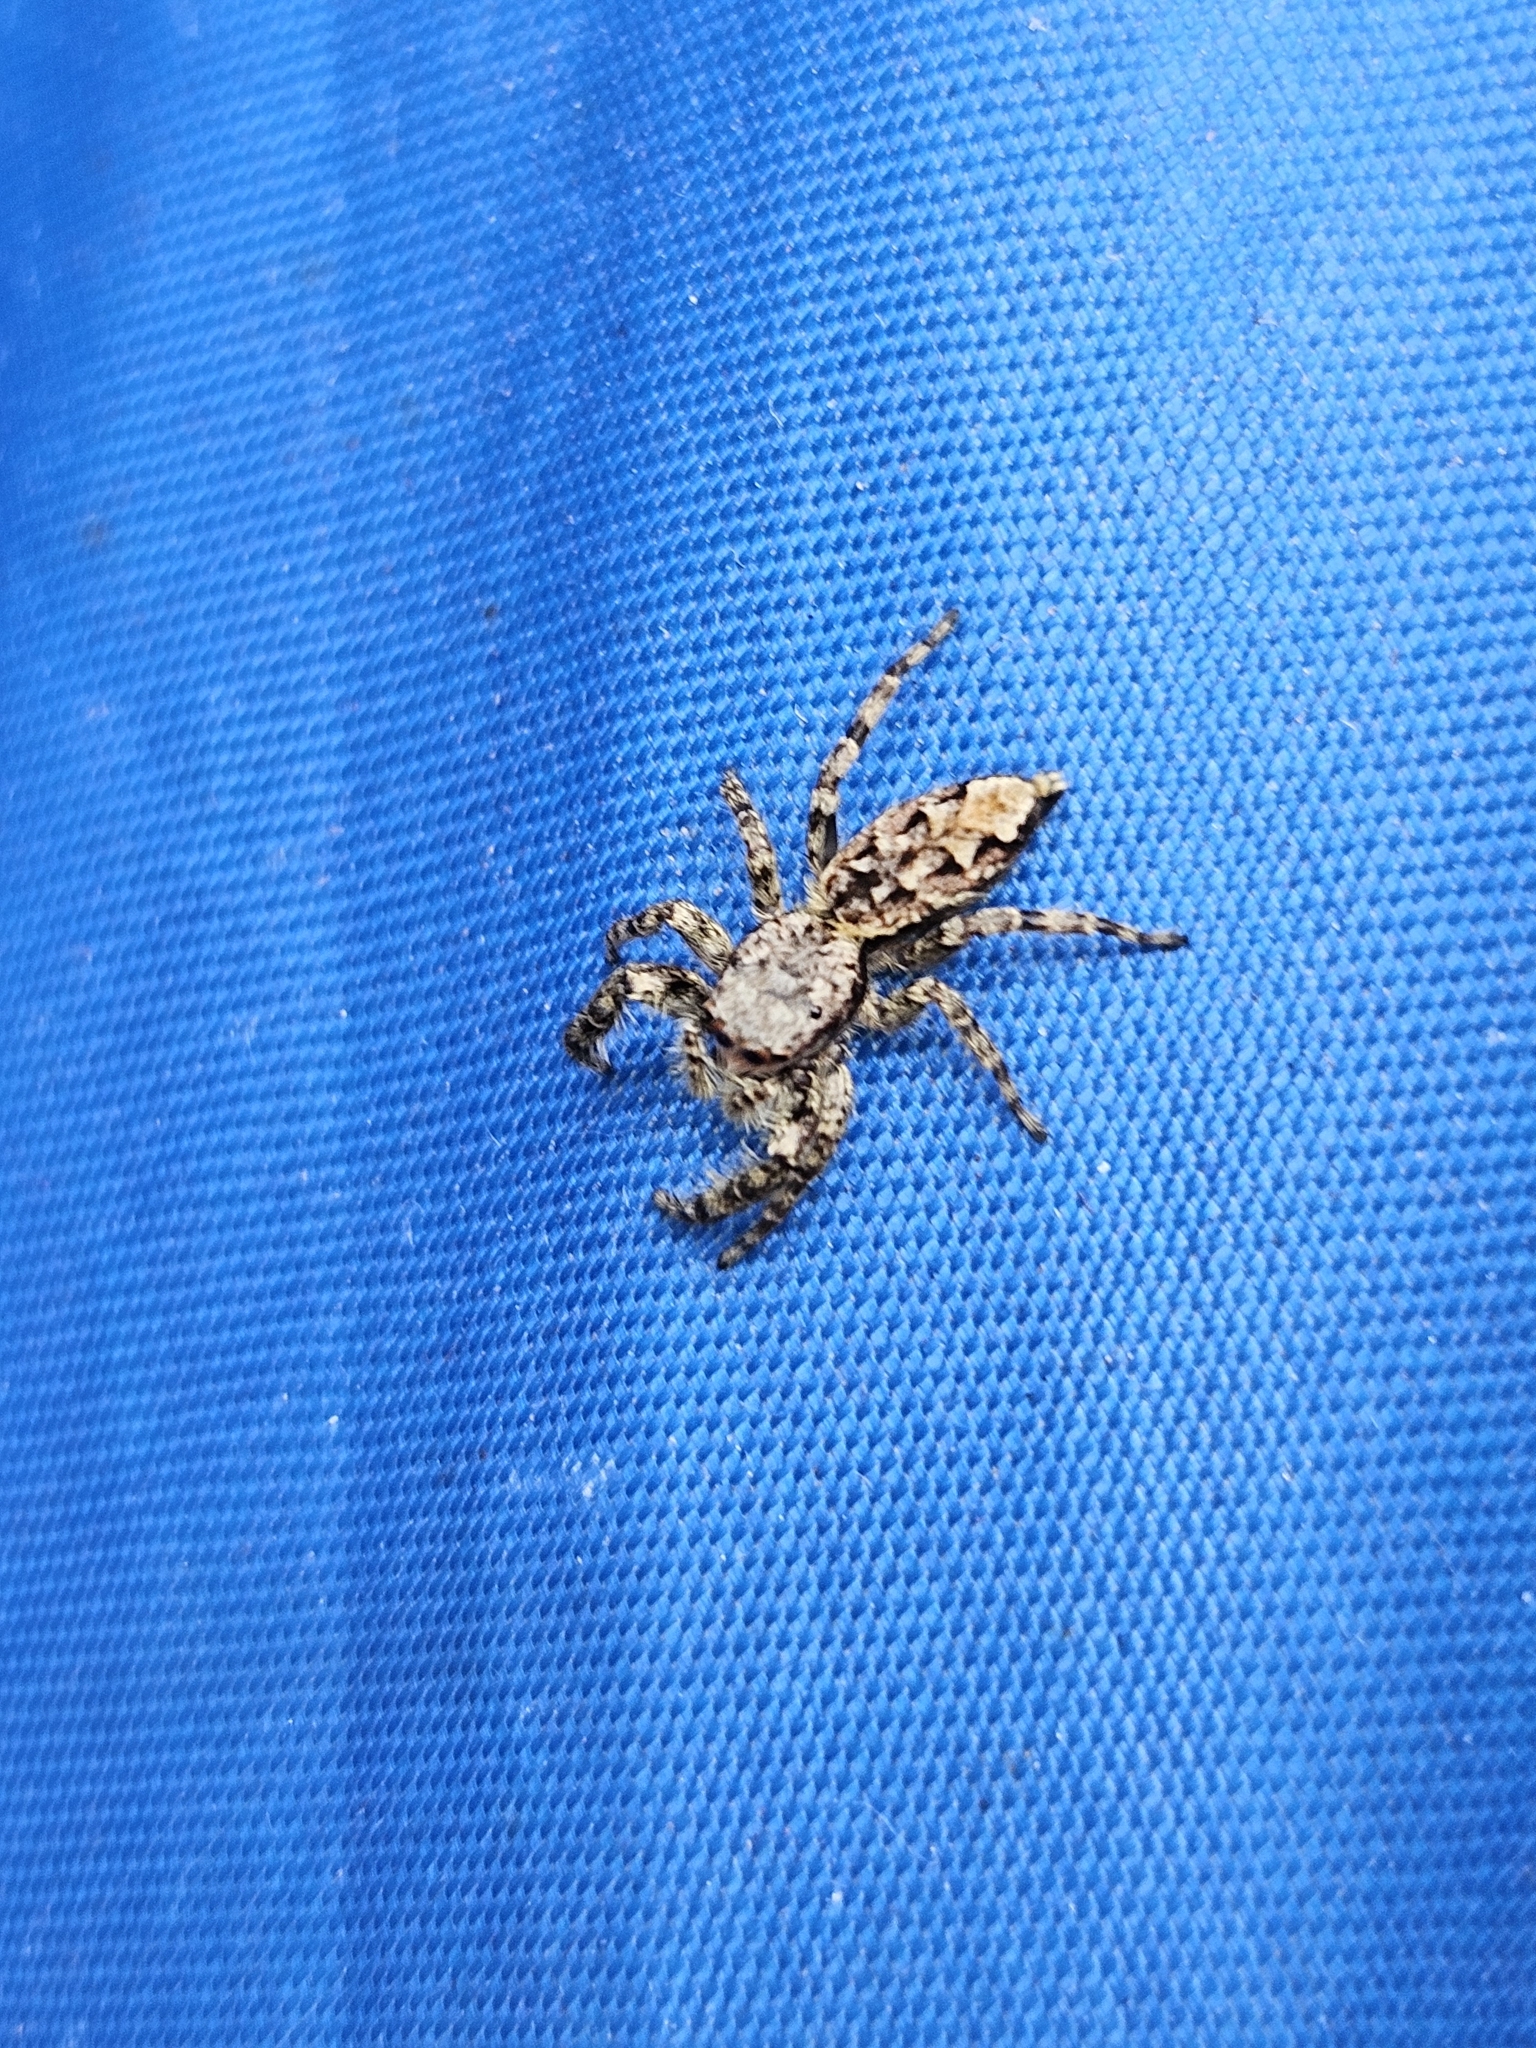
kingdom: Animalia
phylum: Arthropoda
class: Arachnida
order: Araneae
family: Salticidae
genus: Marpissa
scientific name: Marpissa muscosa
